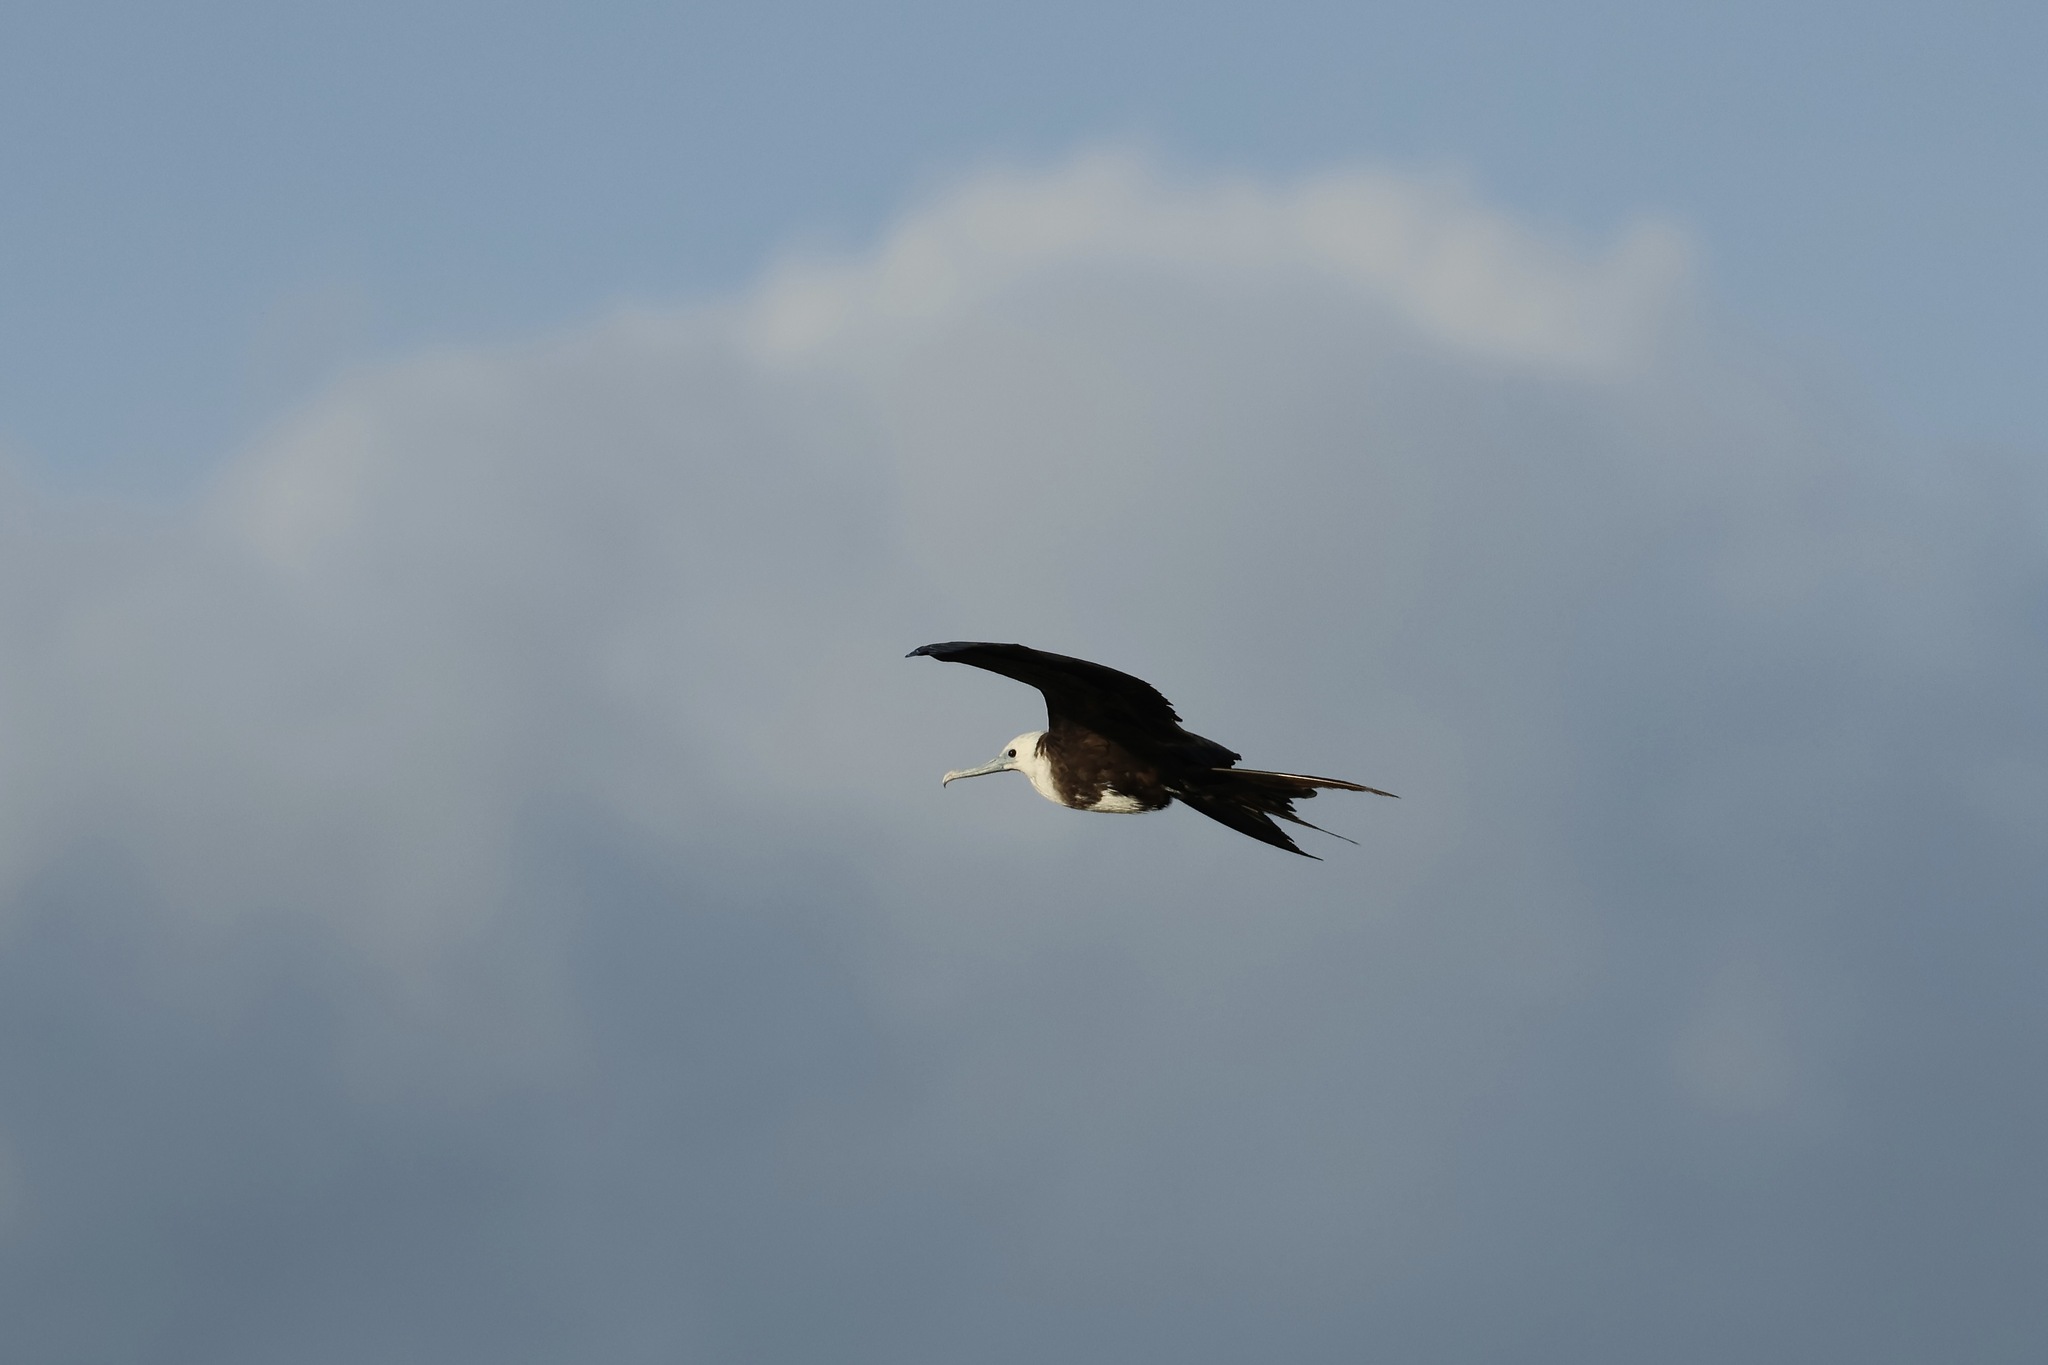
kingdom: Animalia
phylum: Chordata
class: Aves
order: Suliformes
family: Fregatidae
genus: Fregata
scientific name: Fregata magnificens
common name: Magnificent frigatebird
